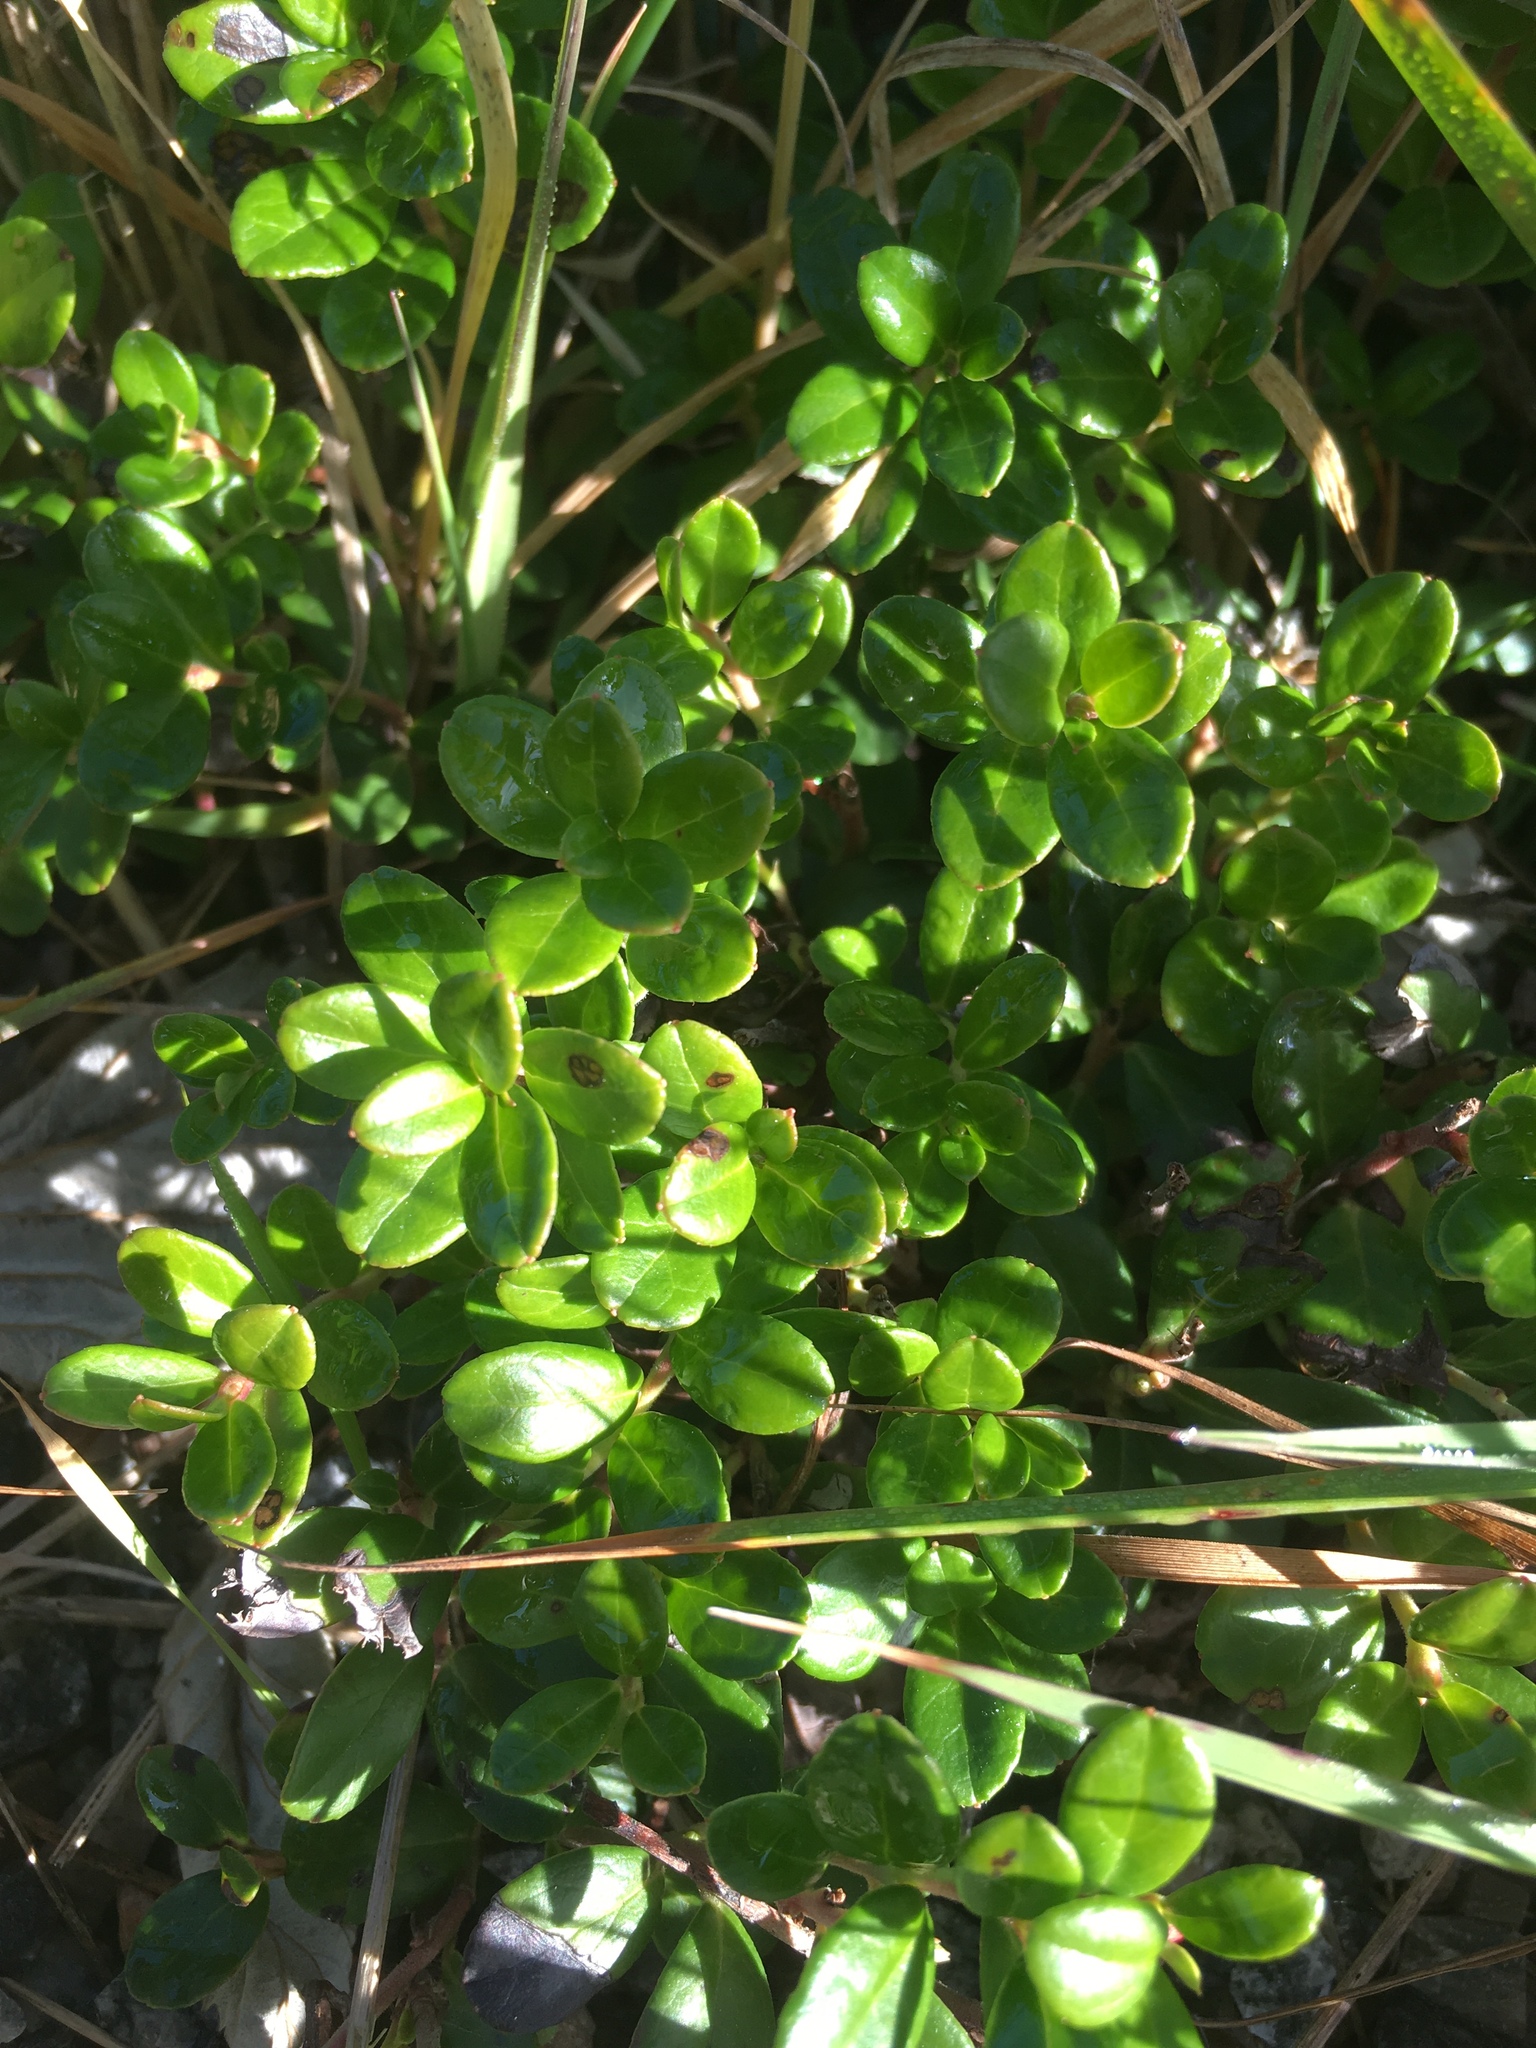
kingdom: Plantae
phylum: Tracheophyta
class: Magnoliopsida
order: Ericales
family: Ericaceae
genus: Vaccinium
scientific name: Vaccinium vitis-idaea
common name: Cowberry
